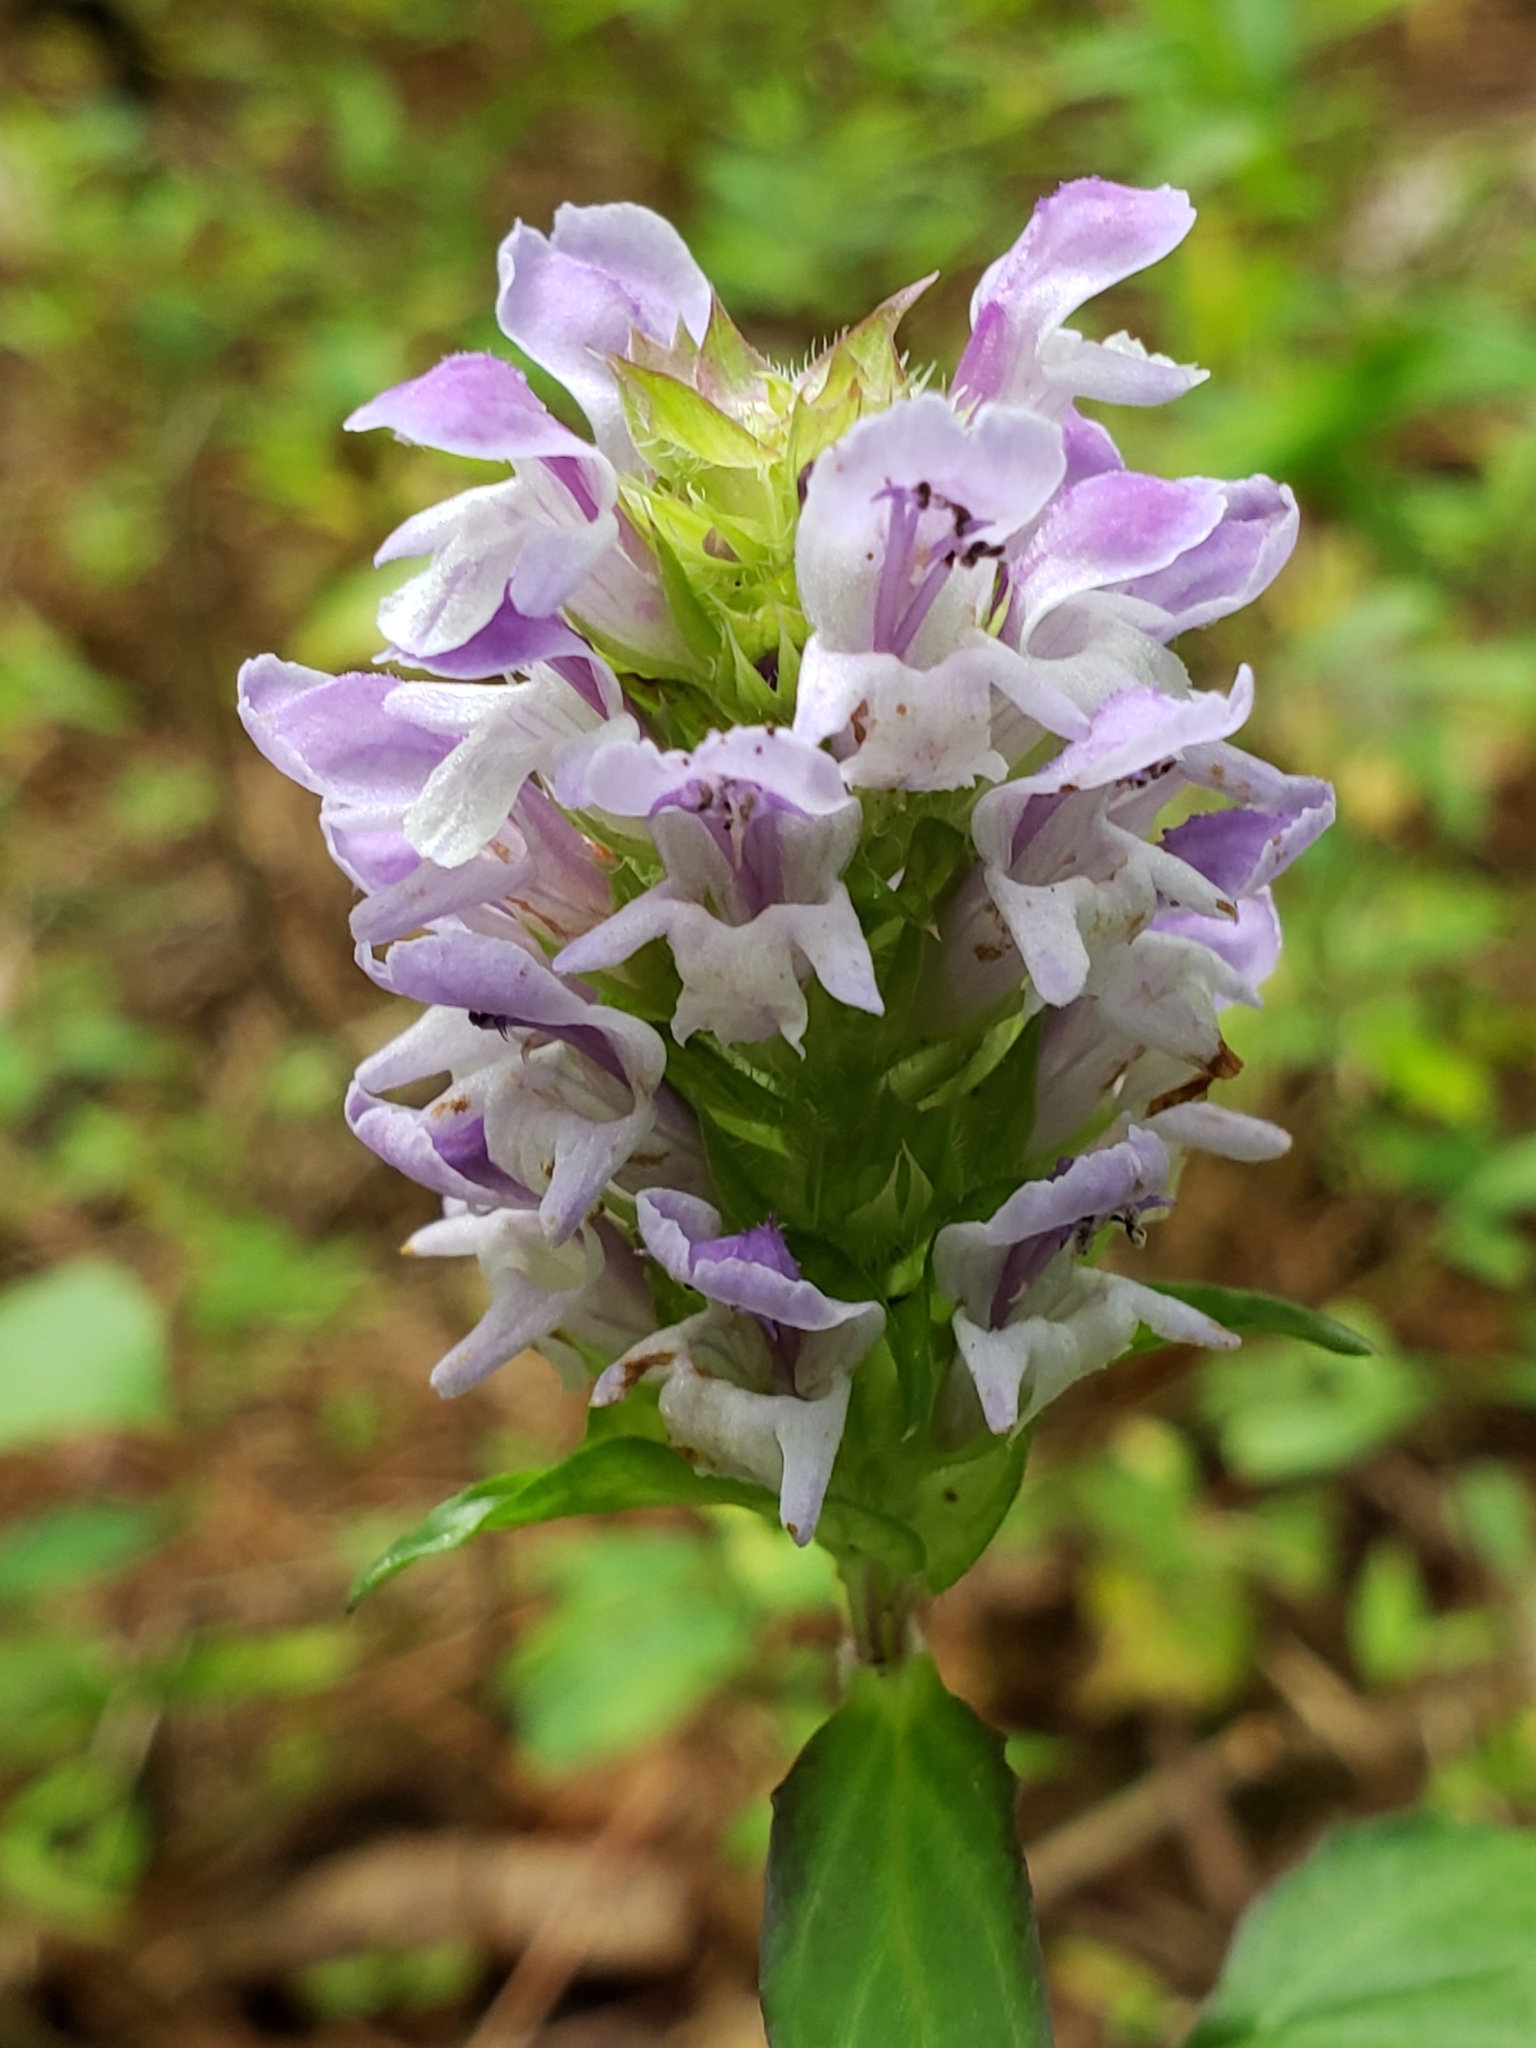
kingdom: Plantae
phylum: Tracheophyta
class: Magnoliopsida
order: Lamiales
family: Lamiaceae
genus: Prunella
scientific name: Prunella vulgaris
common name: Heal-all
